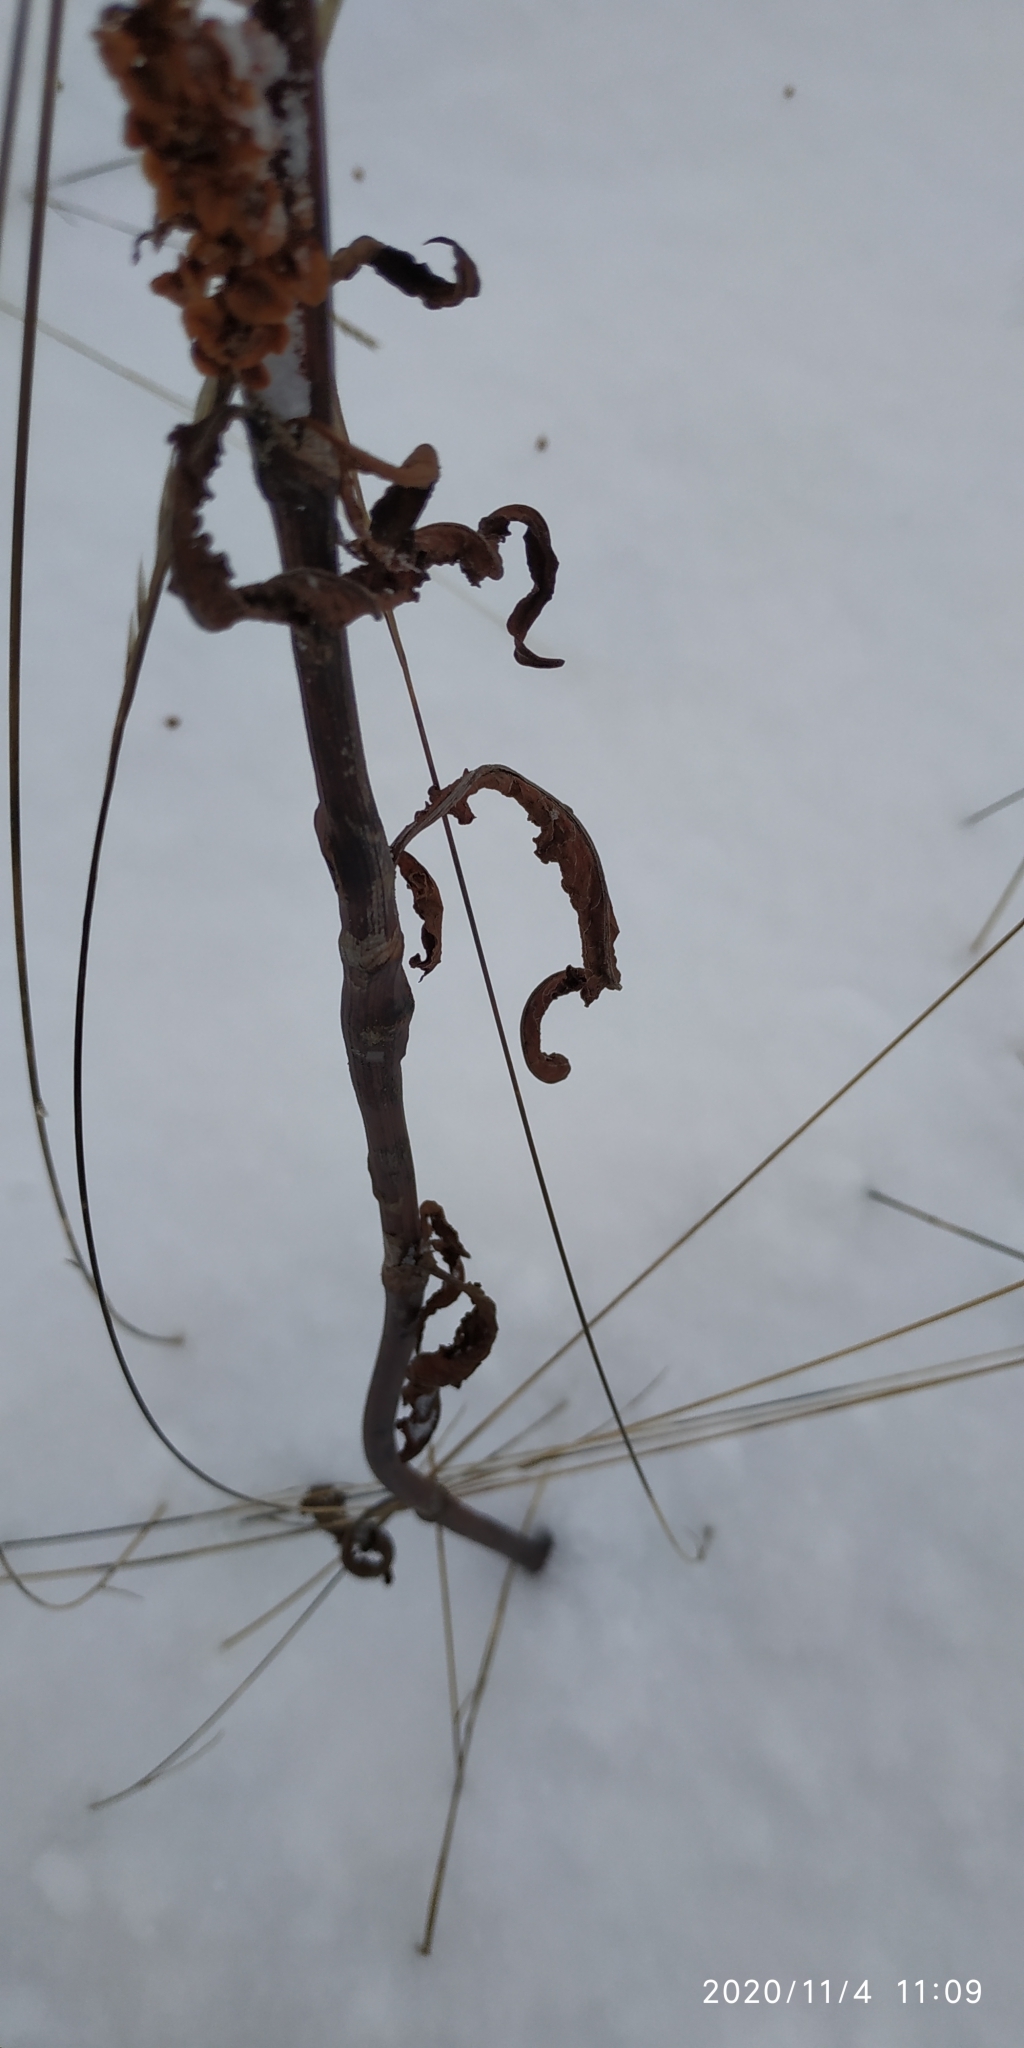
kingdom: Plantae
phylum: Tracheophyta
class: Magnoliopsida
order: Caryophyllales
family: Polygonaceae
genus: Rumex
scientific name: Rumex pseudonatronatus
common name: Field dock
